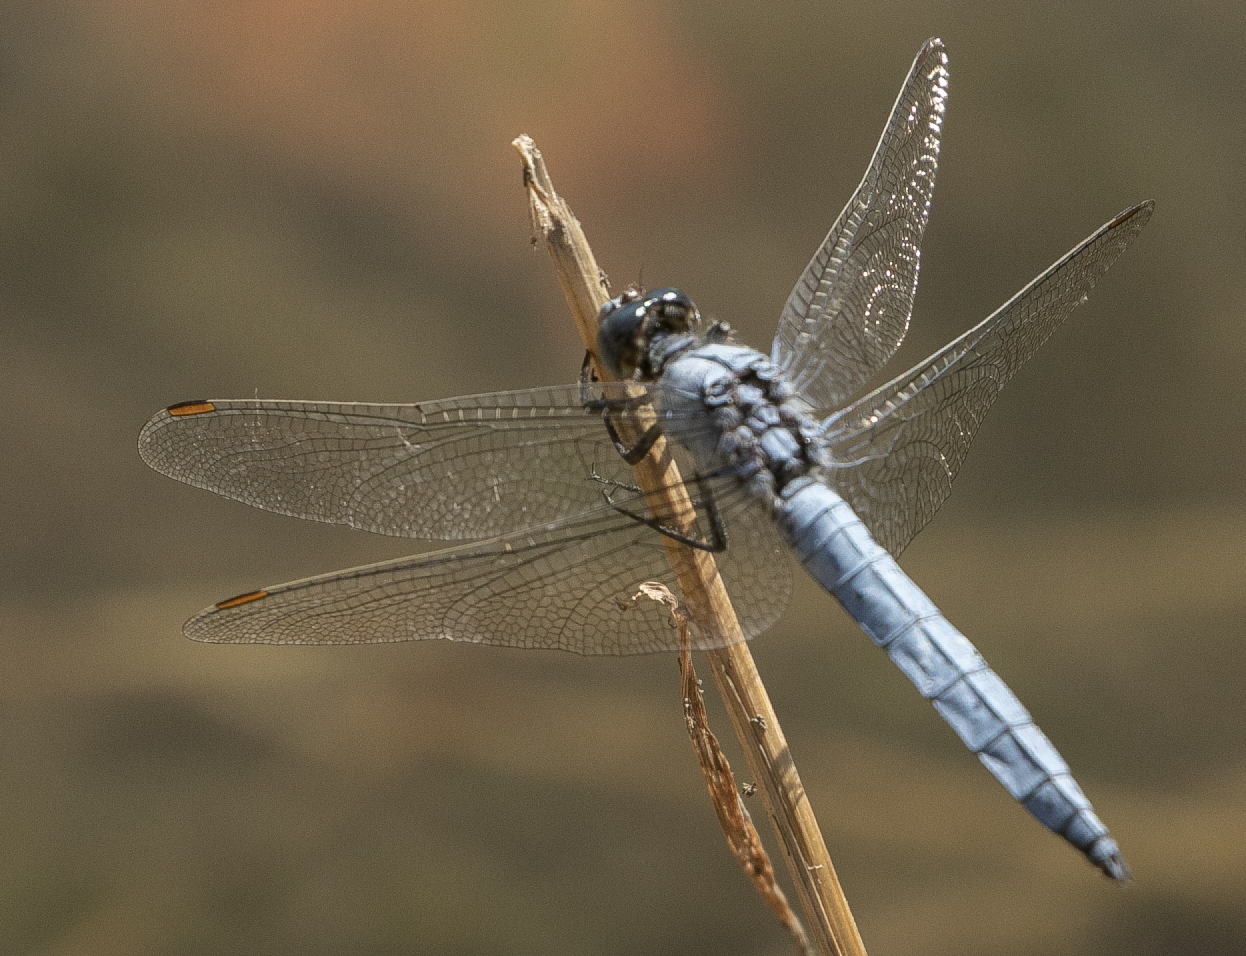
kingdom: Animalia
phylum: Arthropoda
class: Insecta
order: Odonata
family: Libellulidae
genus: Orthetrum
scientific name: Orthetrum brunneum
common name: Southern skimmer
